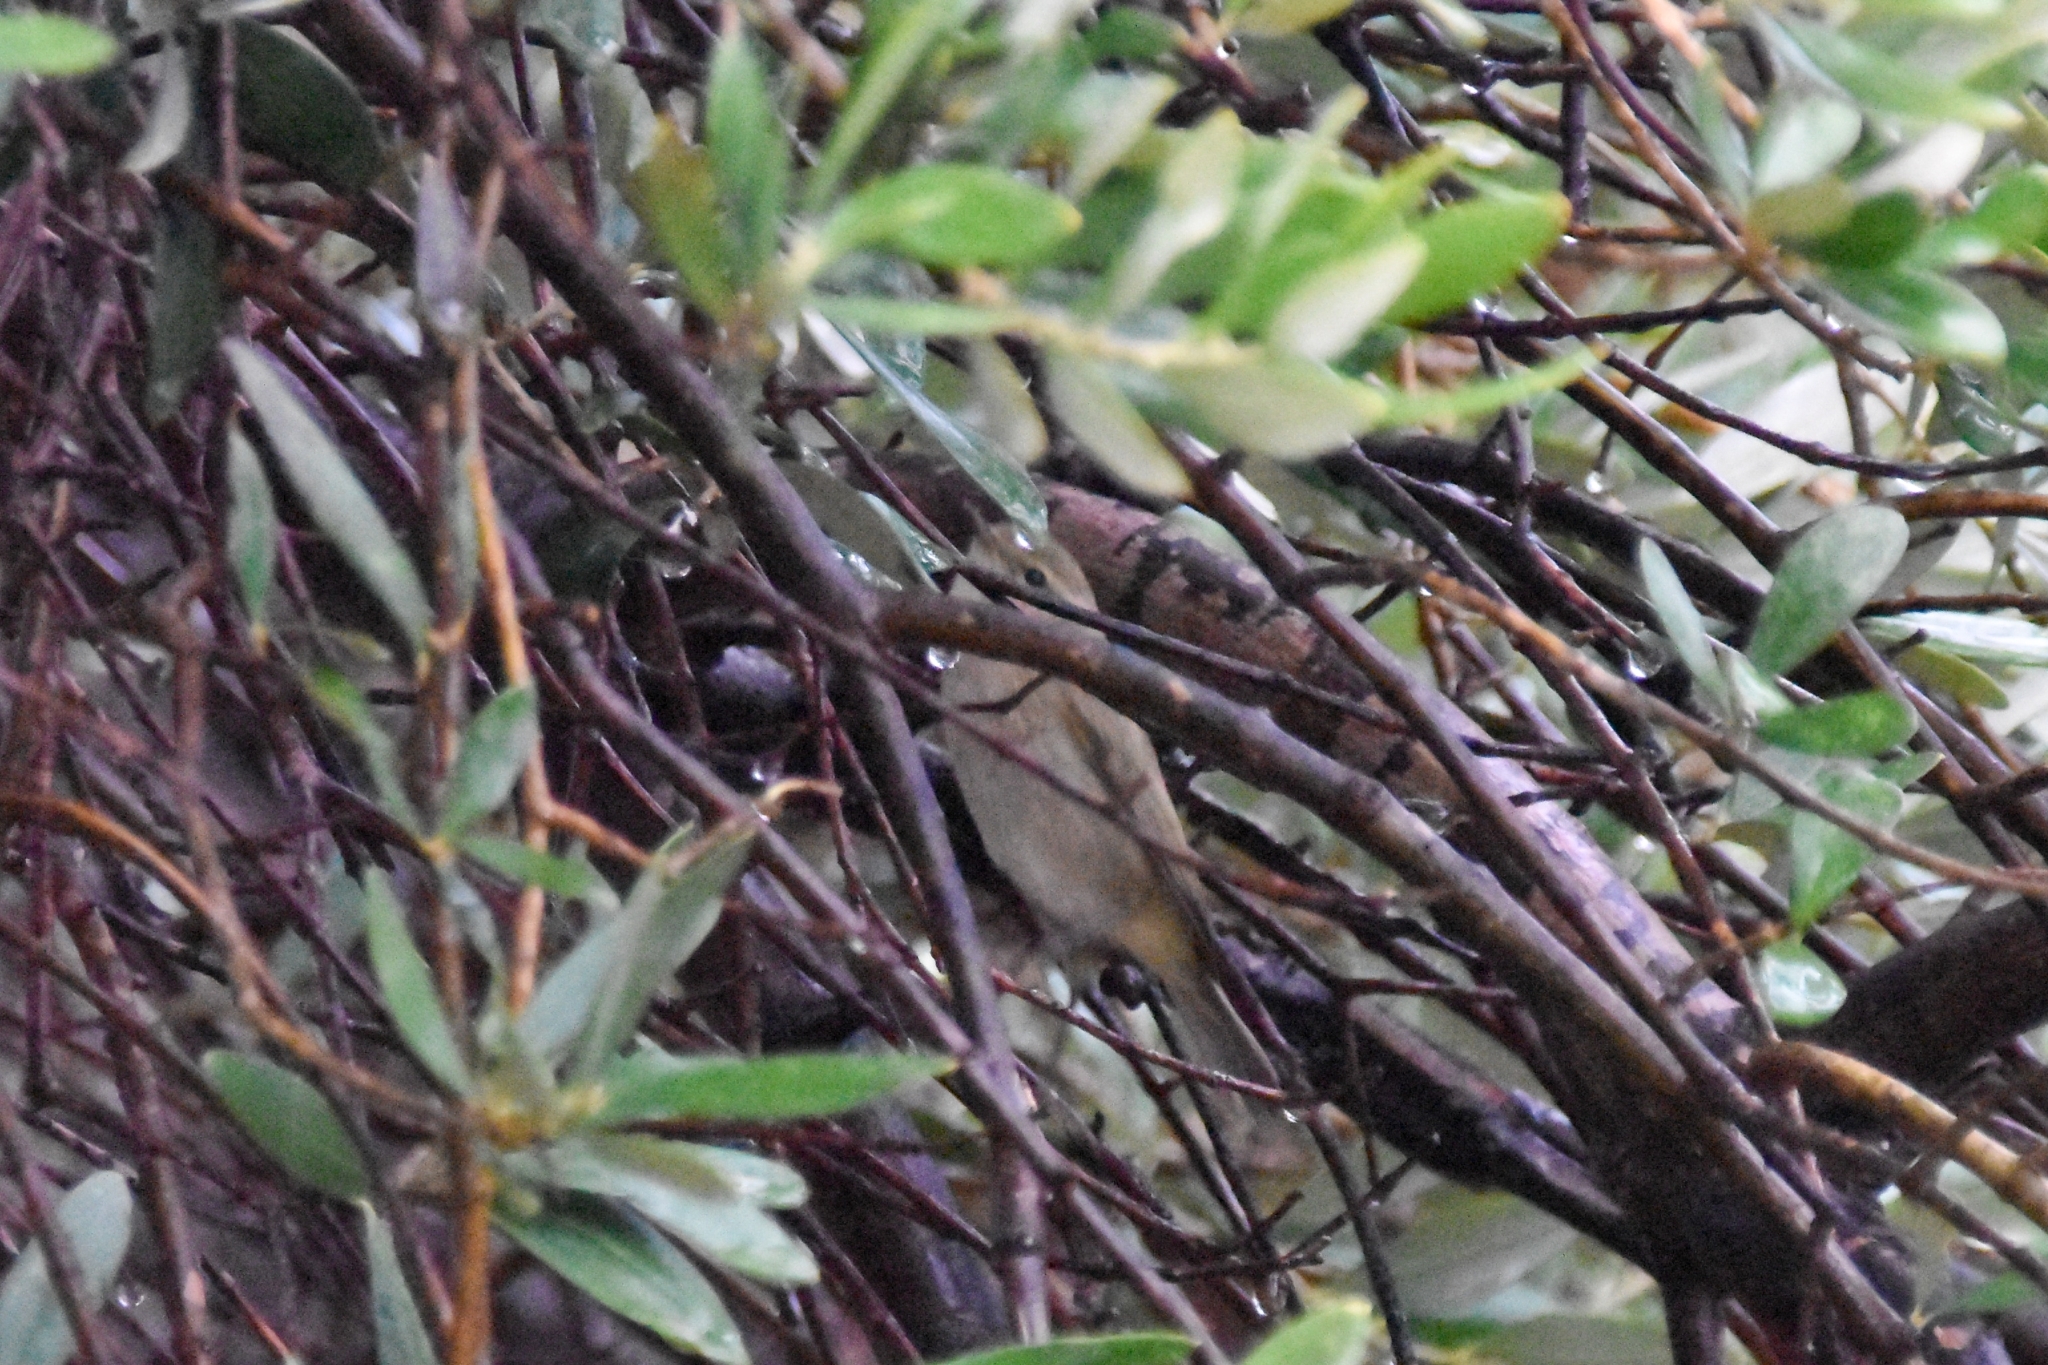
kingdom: Animalia
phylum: Chordata
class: Aves
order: Passeriformes
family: Phylloscopidae
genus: Phylloscopus
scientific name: Phylloscopus collybita
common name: Common chiffchaff
